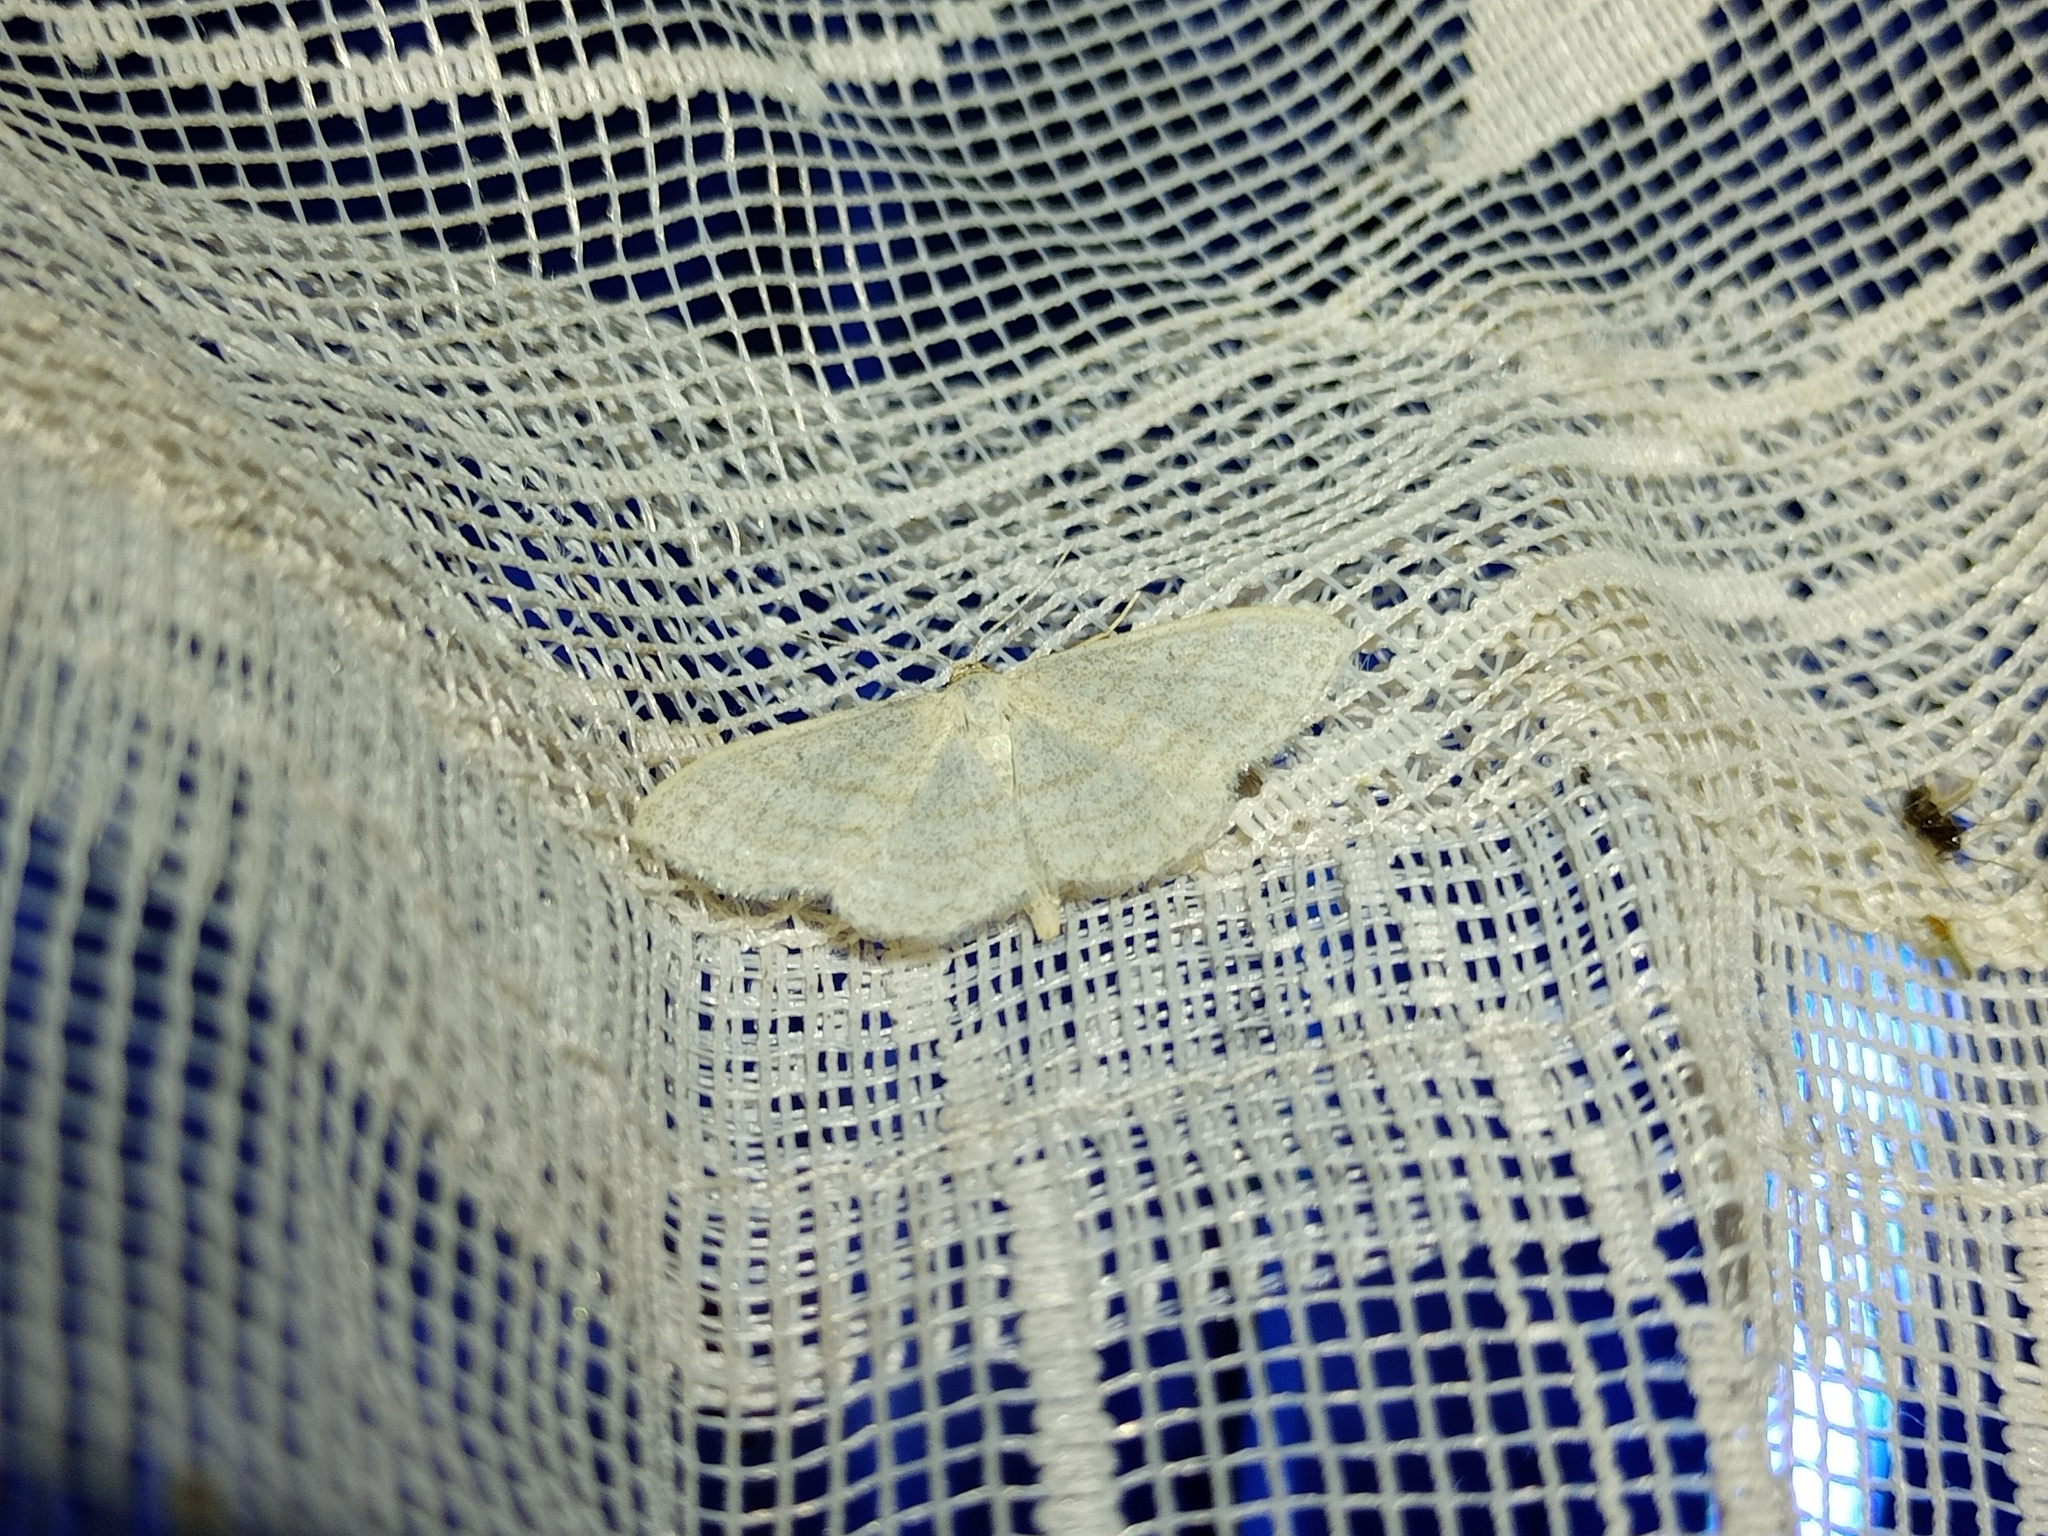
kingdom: Animalia
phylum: Arthropoda
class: Insecta
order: Lepidoptera
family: Geometridae
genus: Idaea
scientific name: Idaea subsericeata
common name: Satin wave
